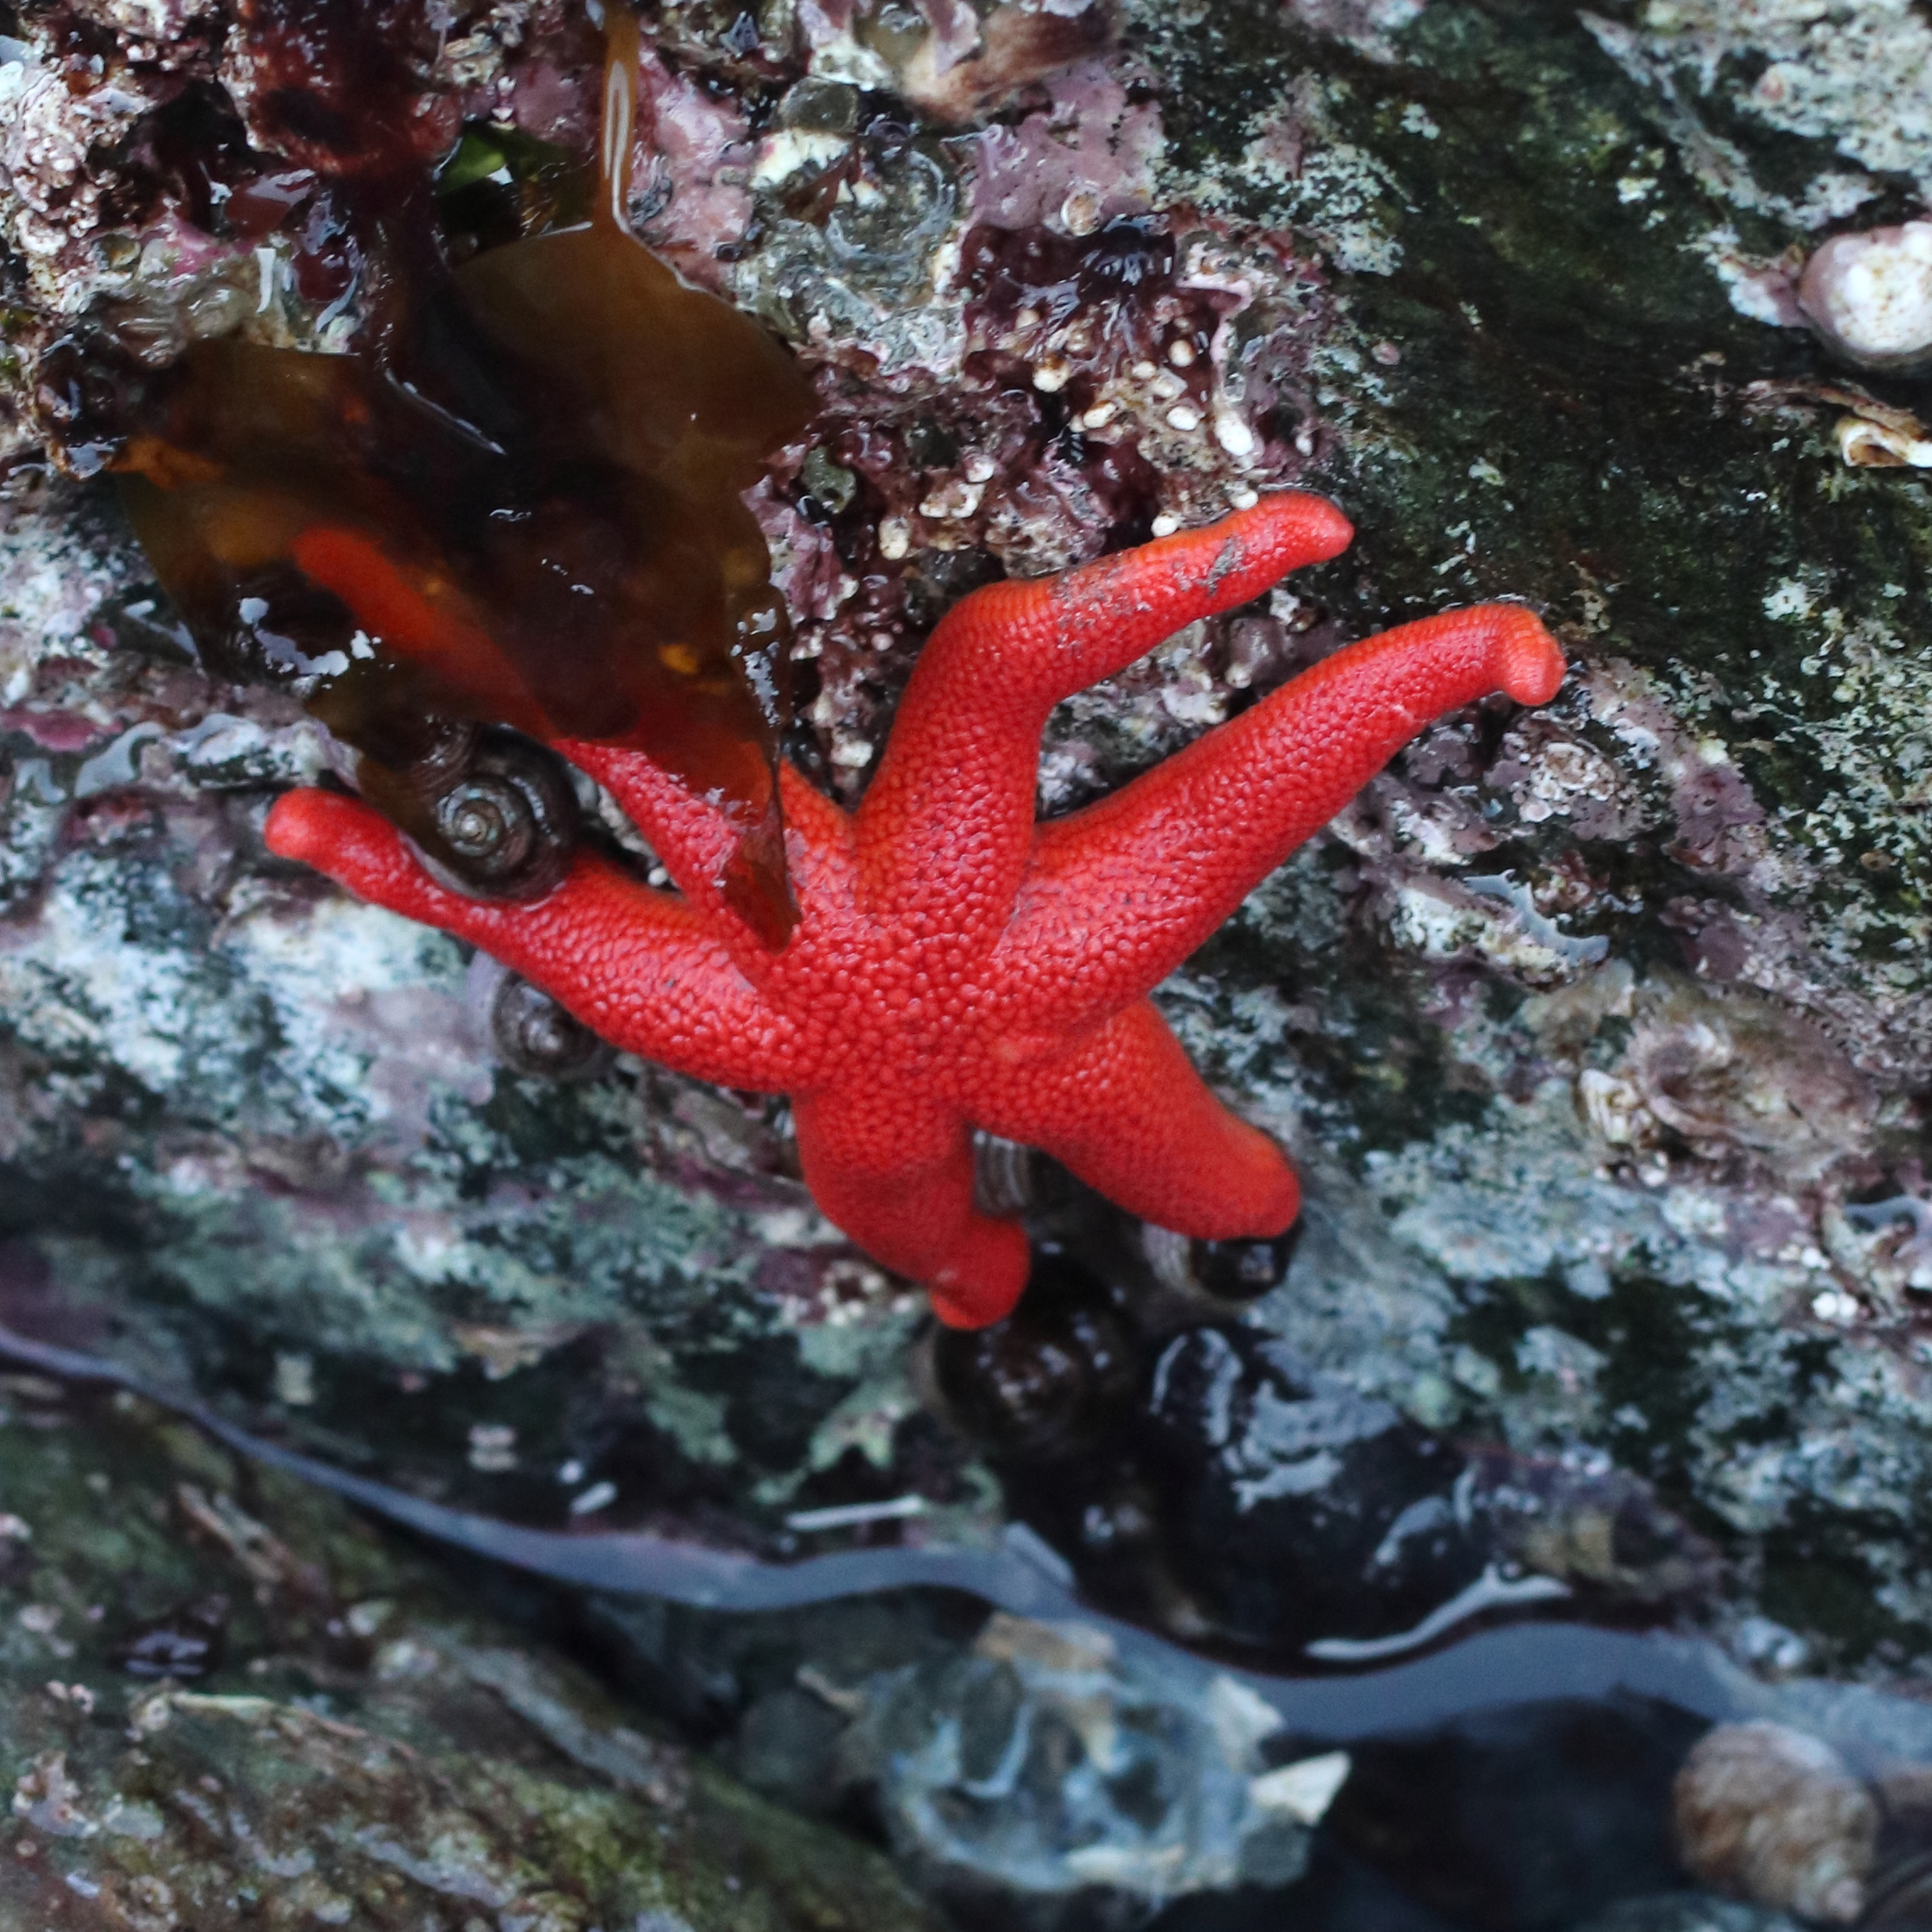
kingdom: Animalia
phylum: Echinodermata
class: Asteroidea
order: Spinulosida
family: Echinasteridae
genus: Henricia
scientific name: Henricia leviuscula
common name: Pacific blood star
